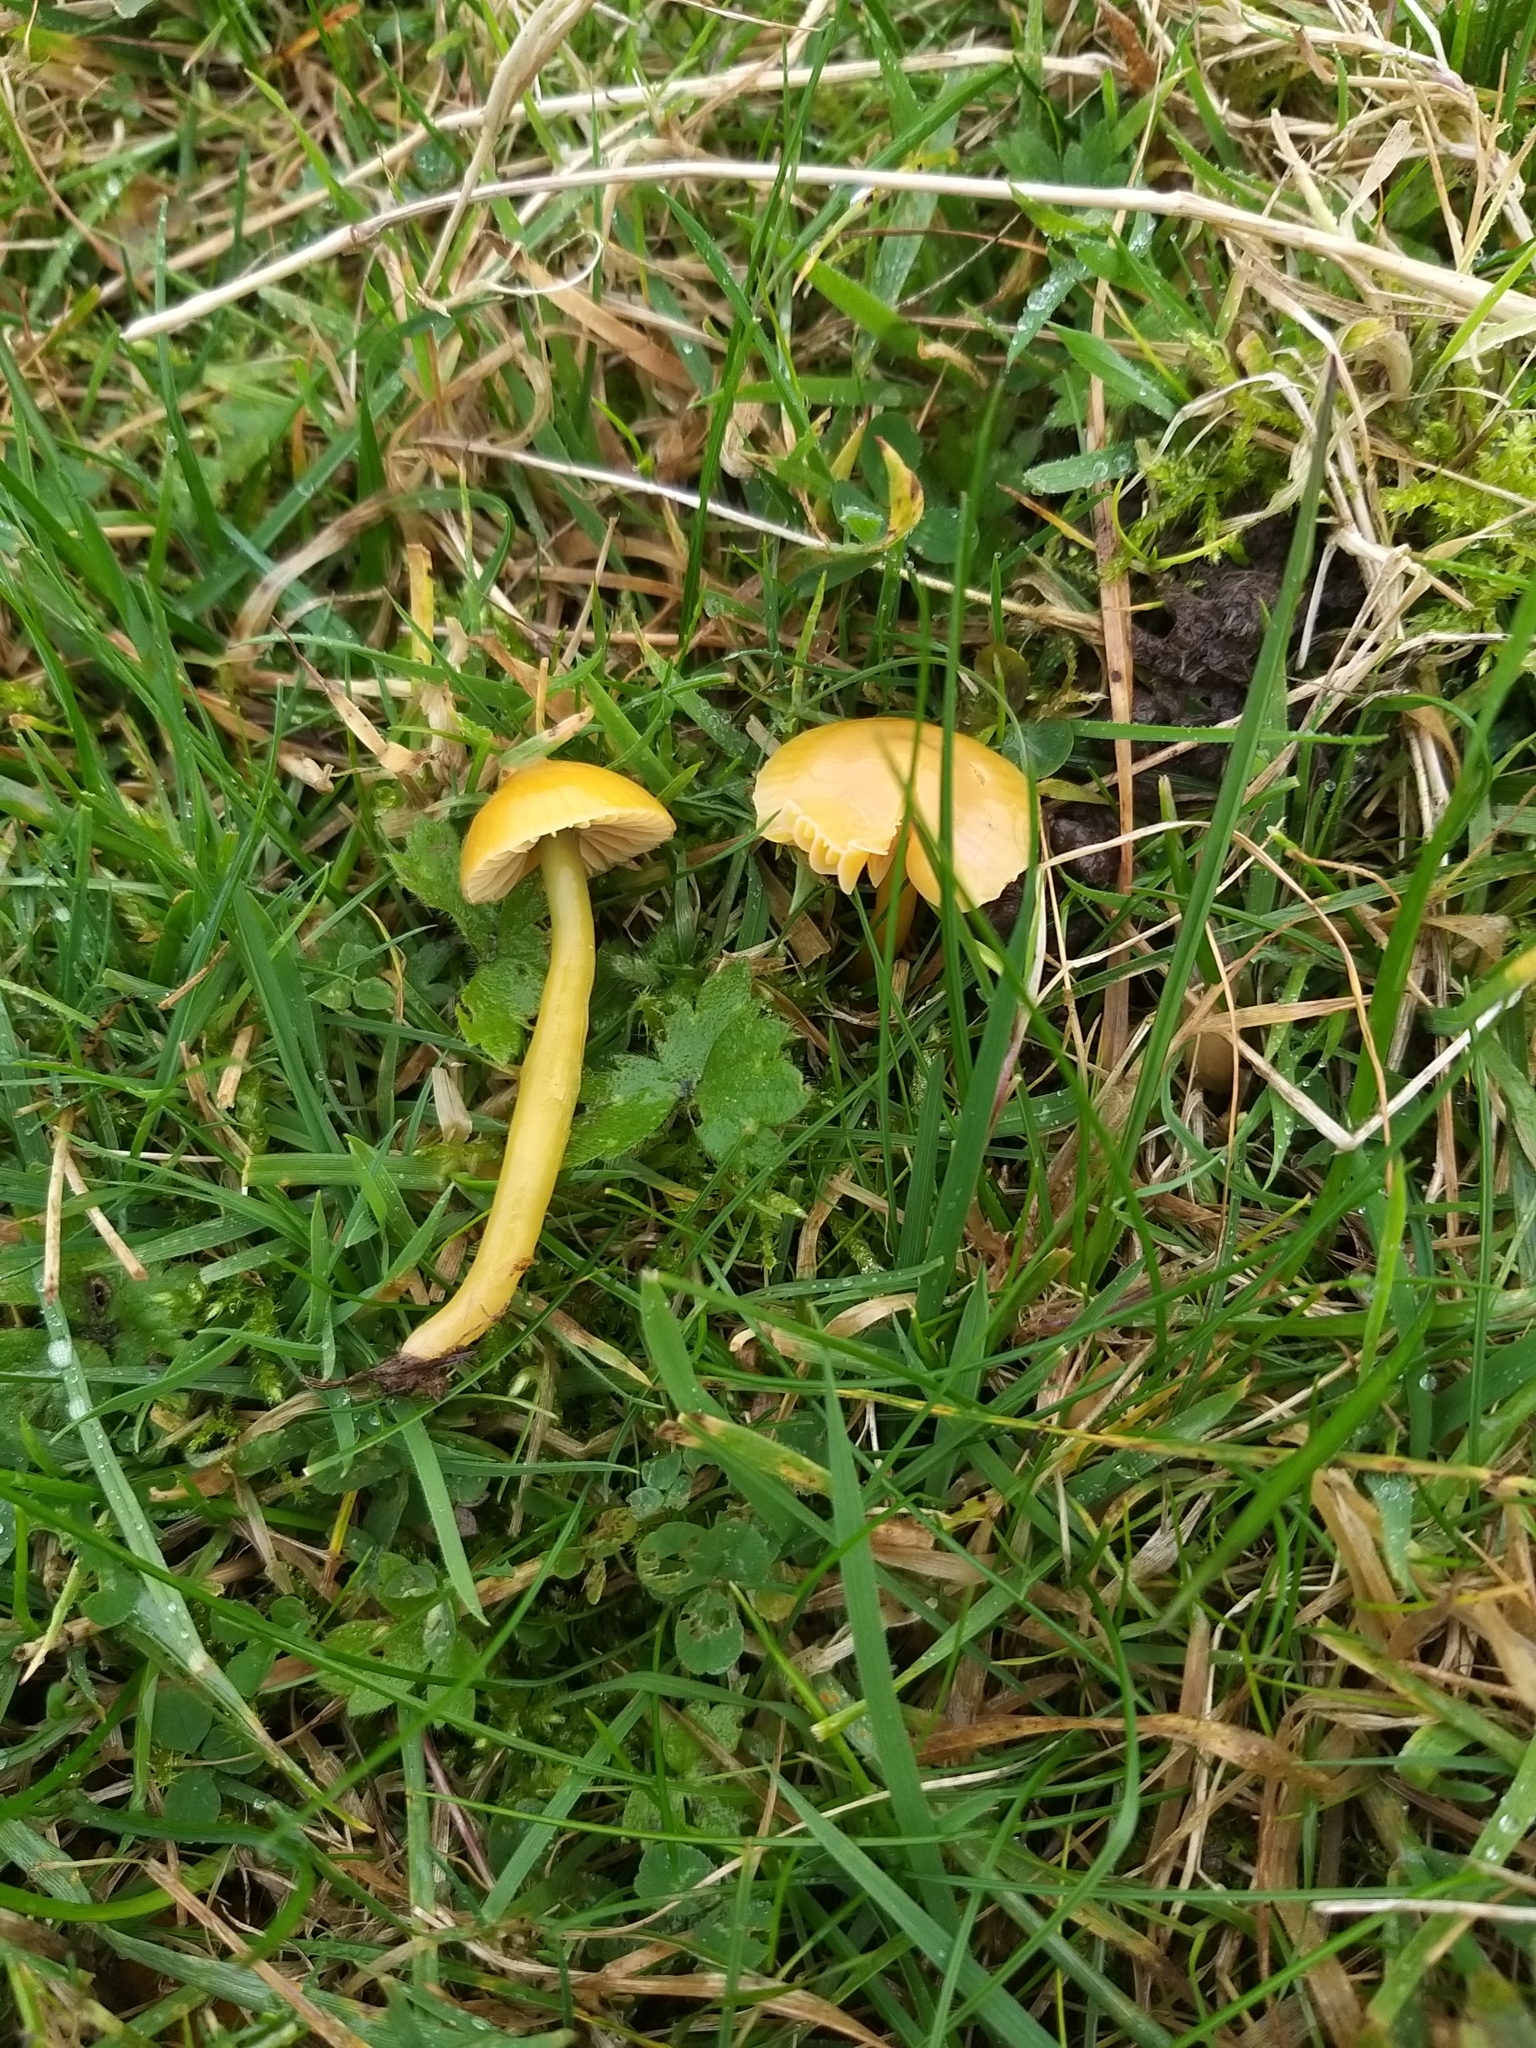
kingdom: Fungi
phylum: Basidiomycota
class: Agaricomycetes
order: Agaricales
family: Hygrophoraceae
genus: Gliophorus
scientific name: Gliophorus psittacinus
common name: Parrot wax-cap
